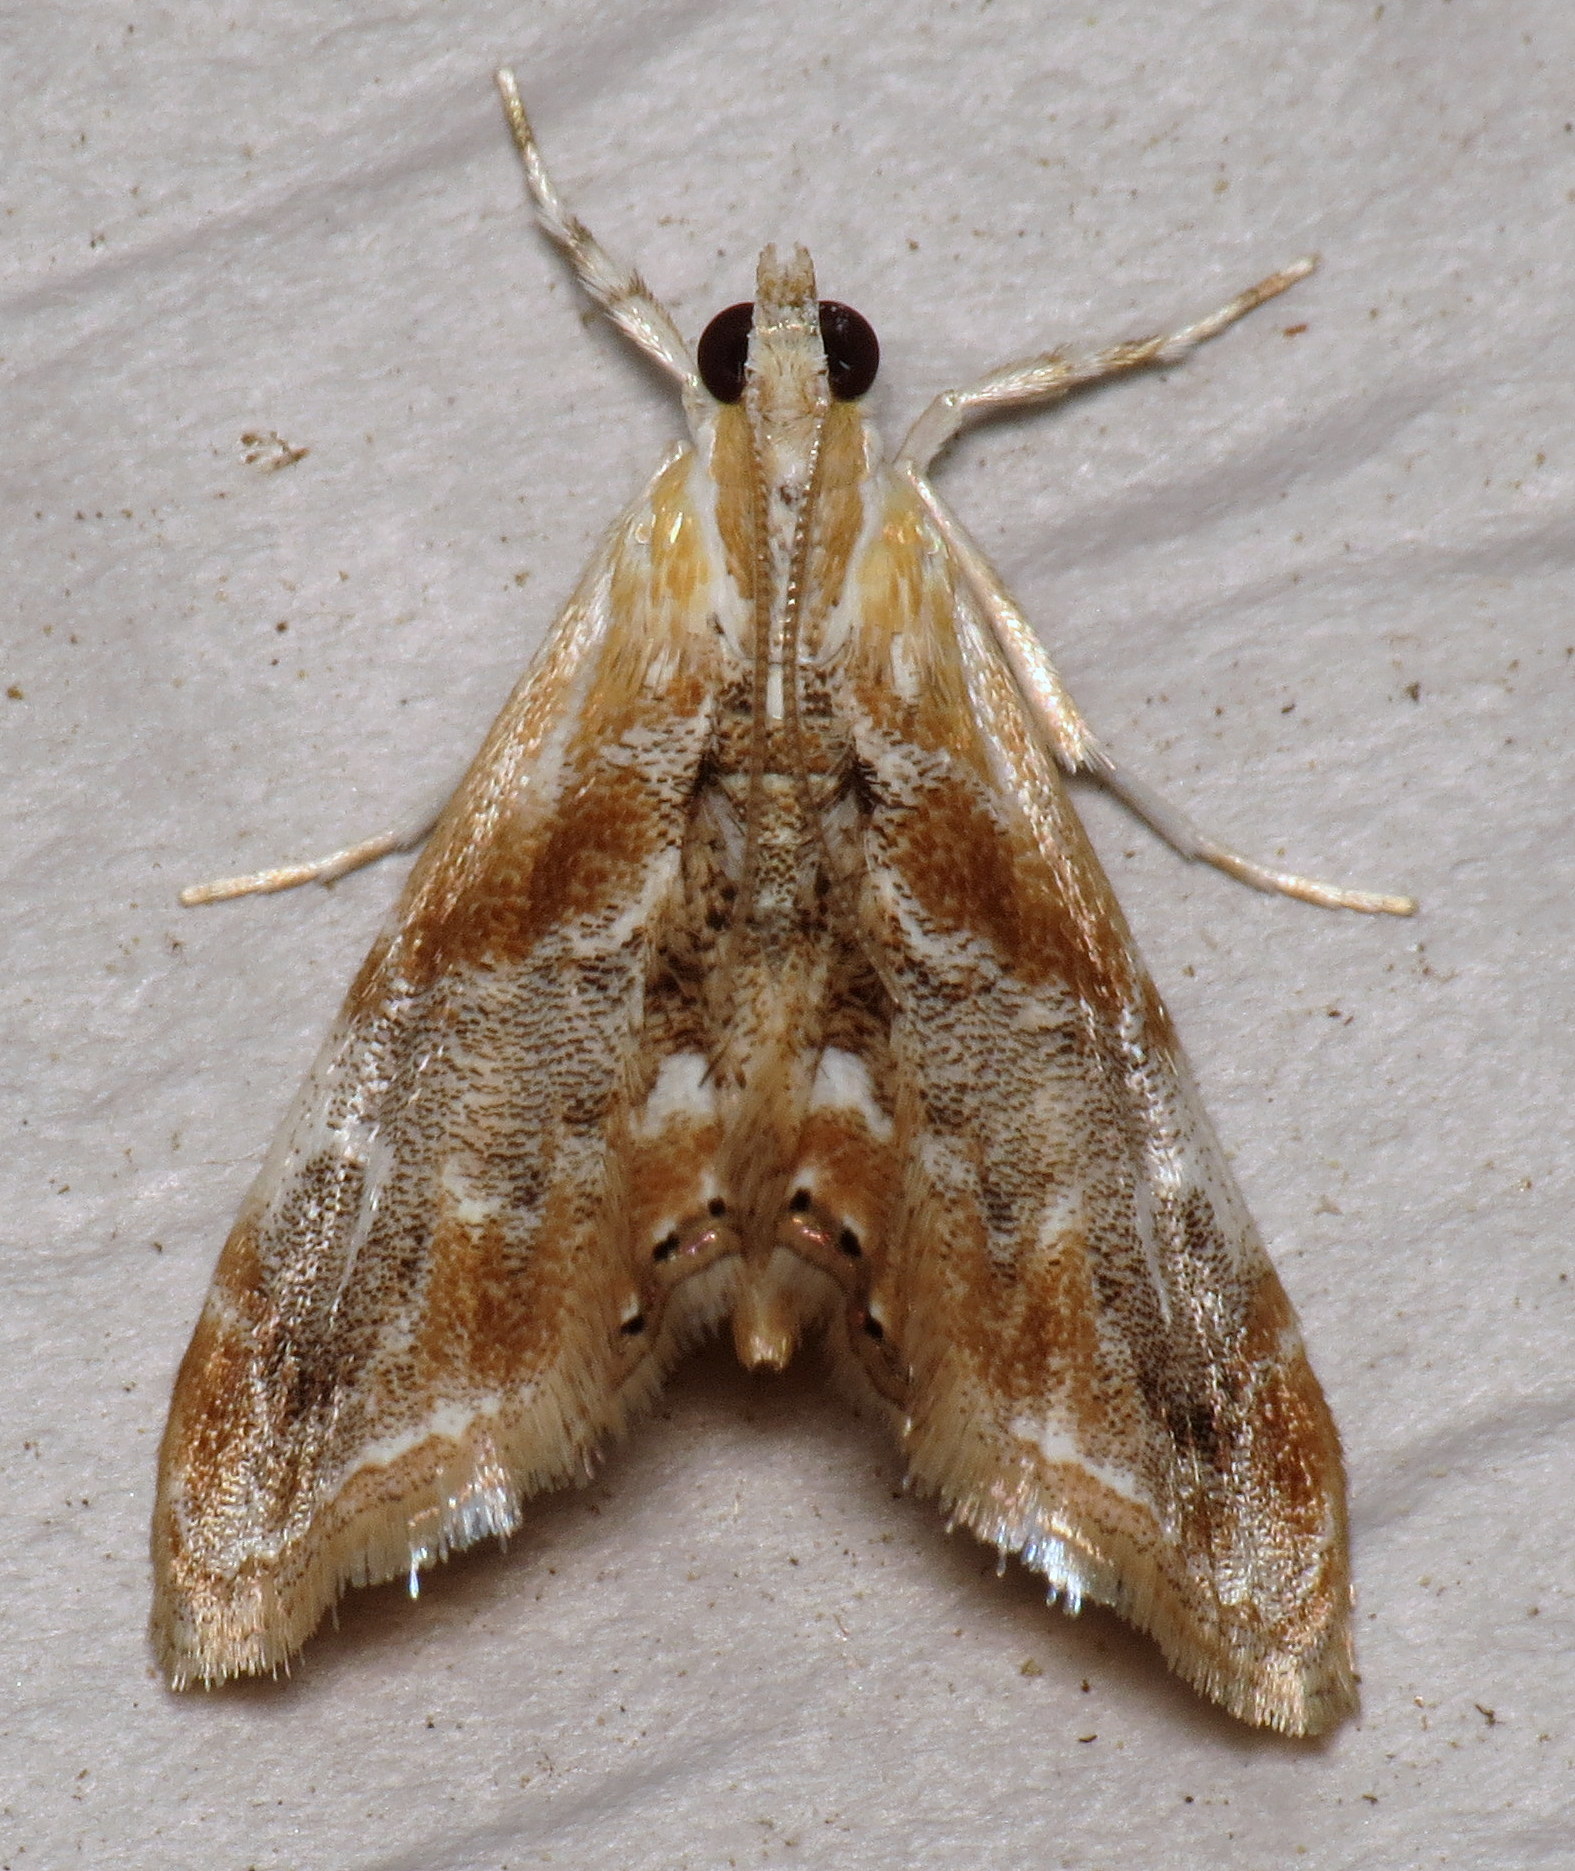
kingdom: Animalia
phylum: Arthropoda
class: Insecta
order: Lepidoptera
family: Crambidae
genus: Dicymolomia
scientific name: Dicymolomia julianalis
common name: Julia's dicymolomia moth
